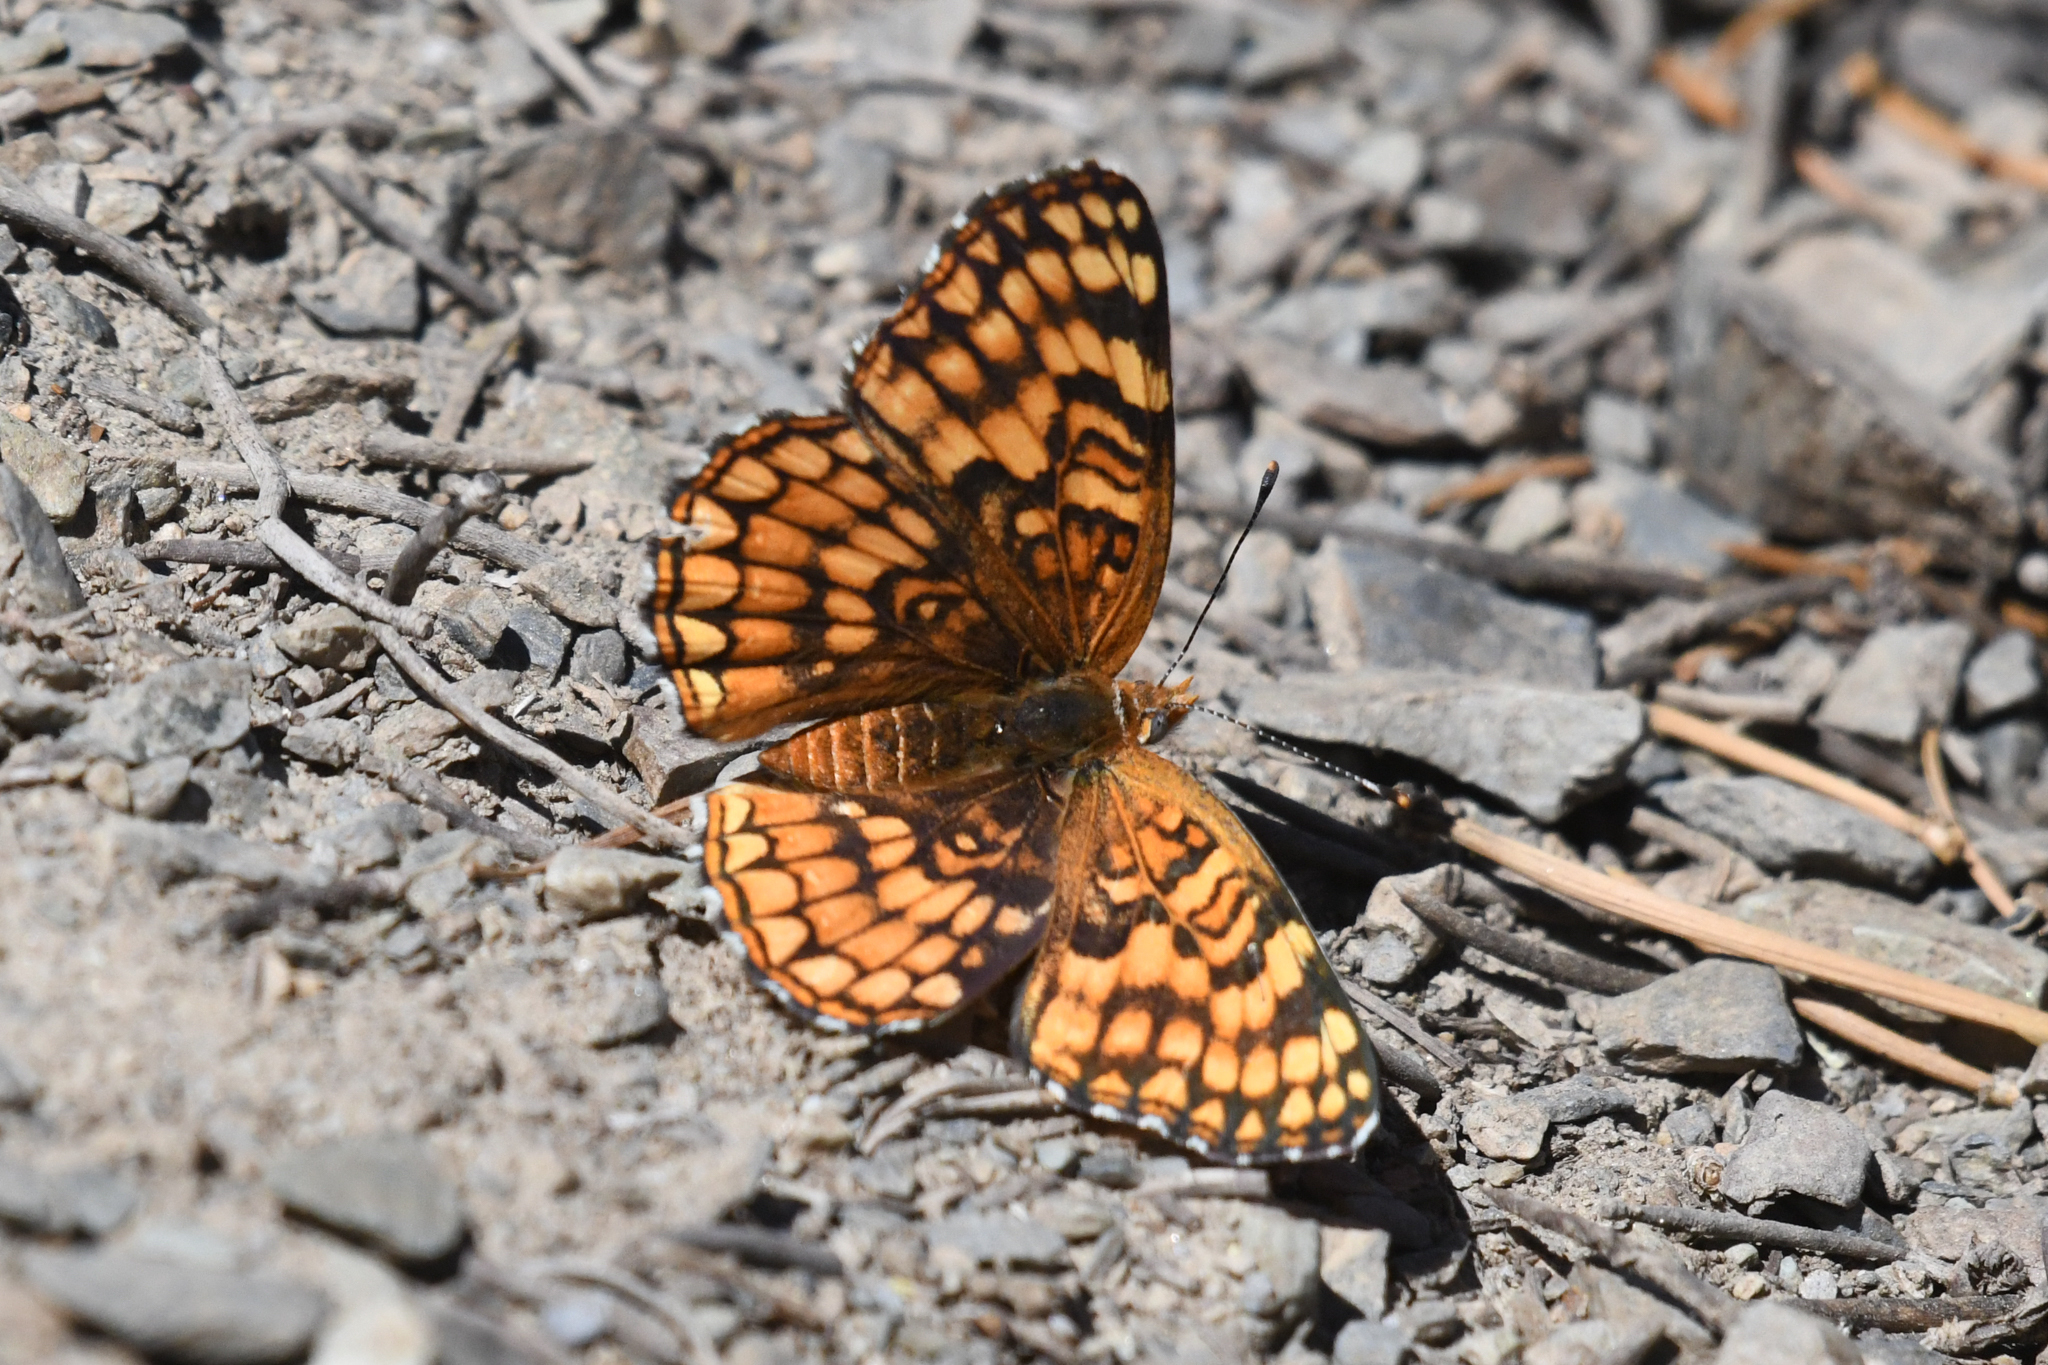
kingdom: Animalia
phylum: Arthropoda
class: Insecta
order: Lepidoptera
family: Nymphalidae
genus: Chlosyne
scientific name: Chlosyne acastus
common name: Sagebrush checkerspot
